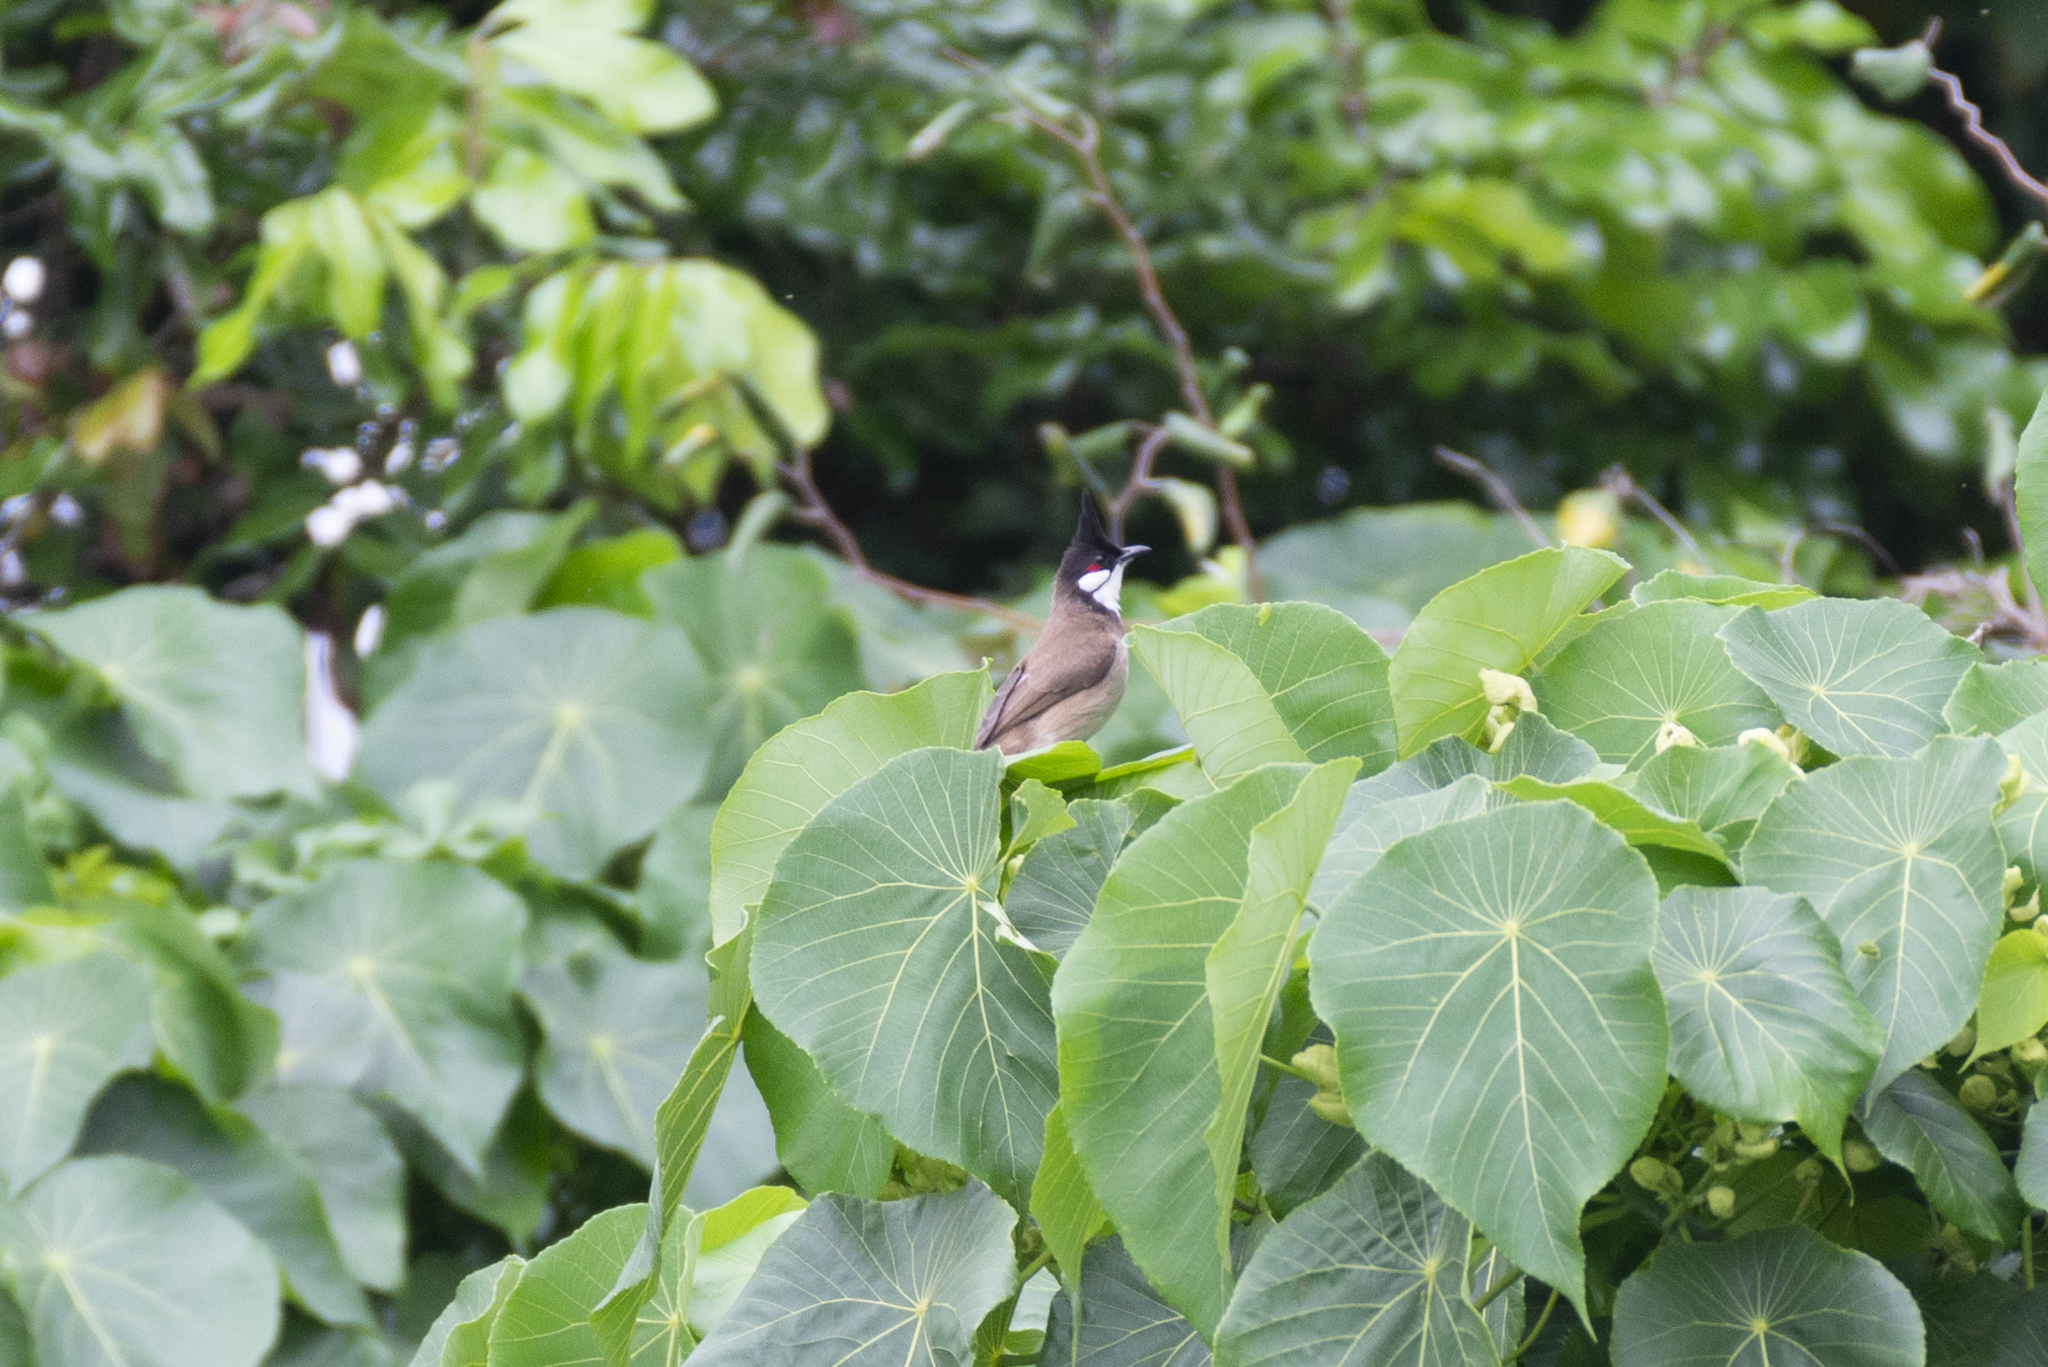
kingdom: Animalia
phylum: Chordata
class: Aves
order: Passeriformes
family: Pycnonotidae
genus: Pycnonotus
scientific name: Pycnonotus jocosus
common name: Red-whiskered bulbul
